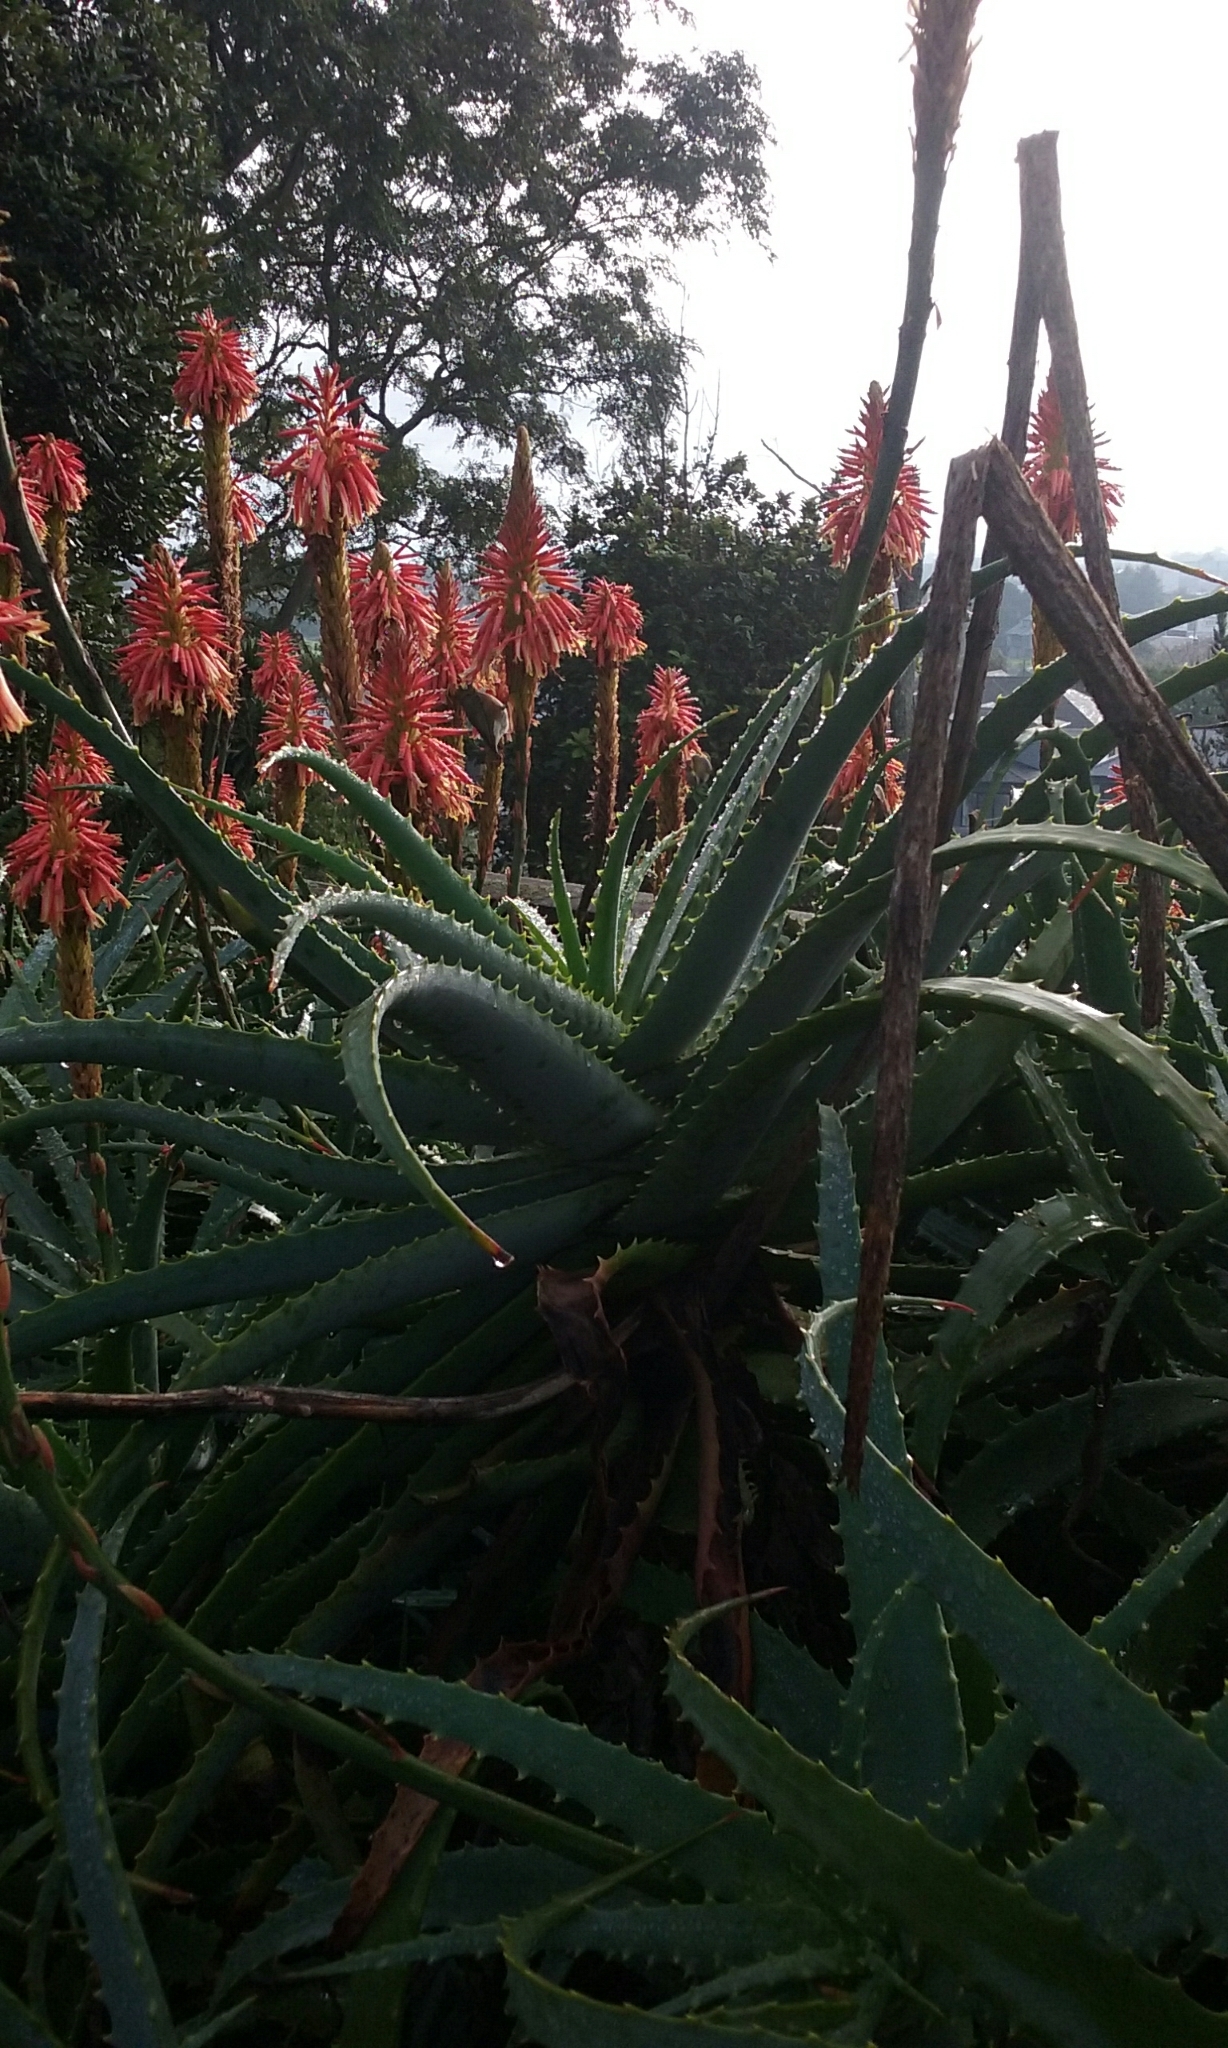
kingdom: Animalia
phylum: Chordata
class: Aves
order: Passeriformes
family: Zosteropidae
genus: Zosterops
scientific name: Zosterops lateralis
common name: Silvereye
